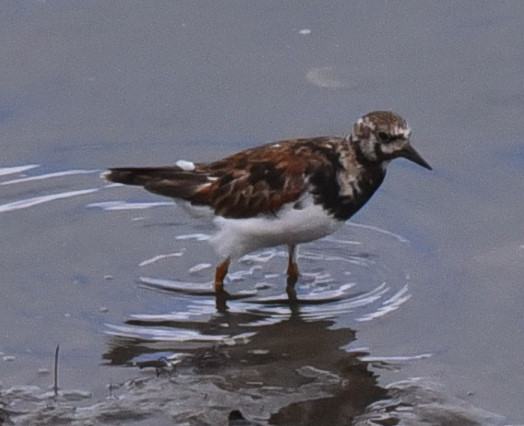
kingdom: Animalia
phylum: Chordata
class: Aves
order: Charadriiformes
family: Scolopacidae
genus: Arenaria
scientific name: Arenaria interpres
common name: Ruddy turnstone
